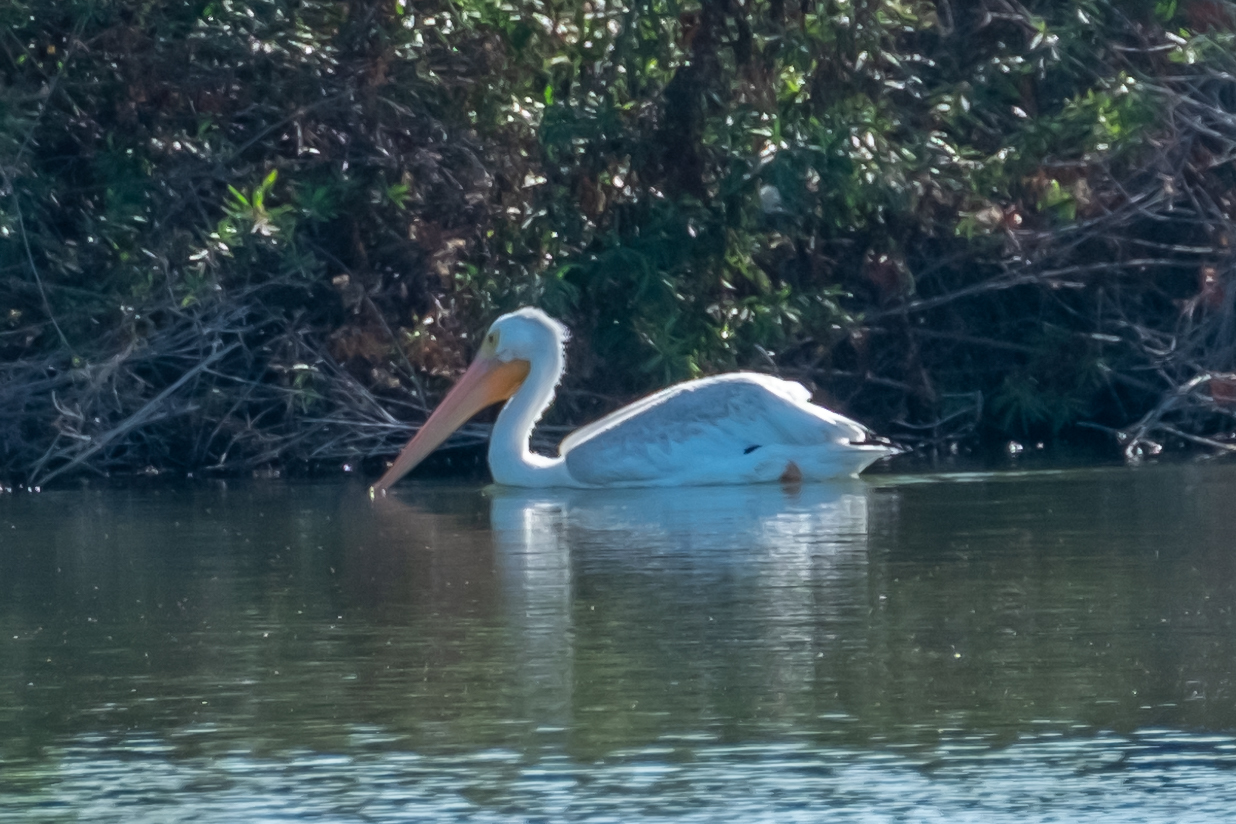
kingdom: Animalia
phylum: Chordata
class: Aves
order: Pelecaniformes
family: Pelecanidae
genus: Pelecanus
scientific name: Pelecanus erythrorhynchos
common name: American white pelican
